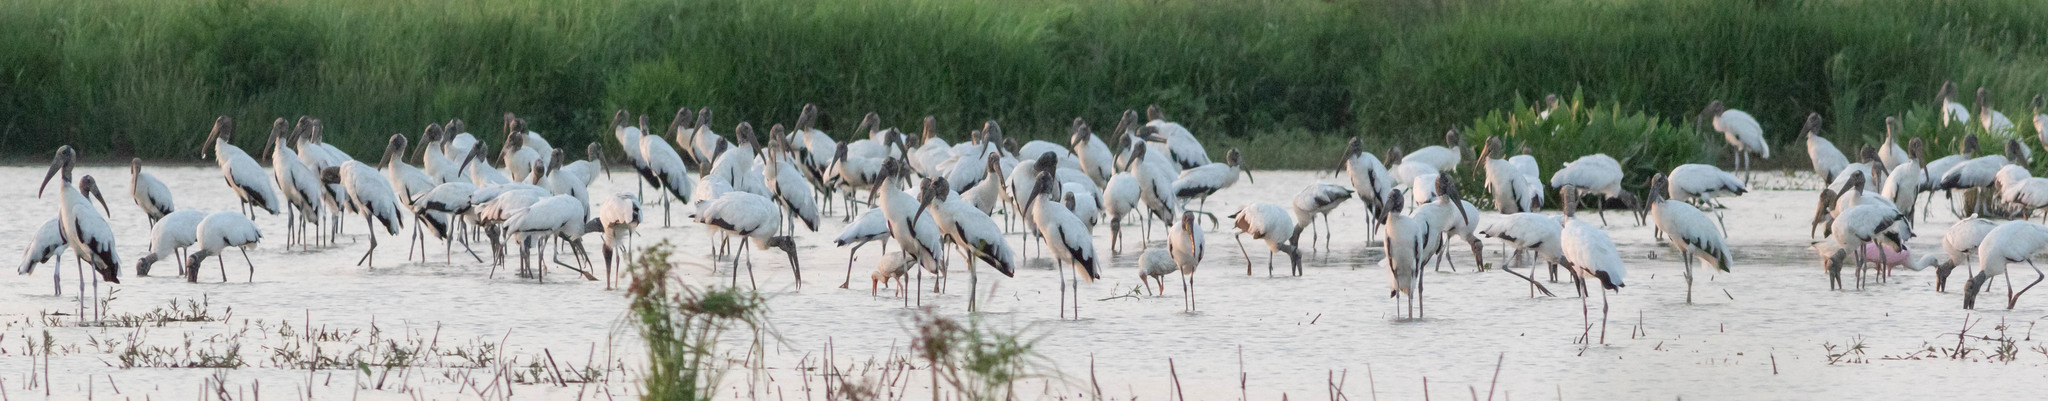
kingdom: Animalia
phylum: Chordata
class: Aves
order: Ciconiiformes
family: Ciconiidae
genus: Mycteria
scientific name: Mycteria americana
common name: Wood stork
